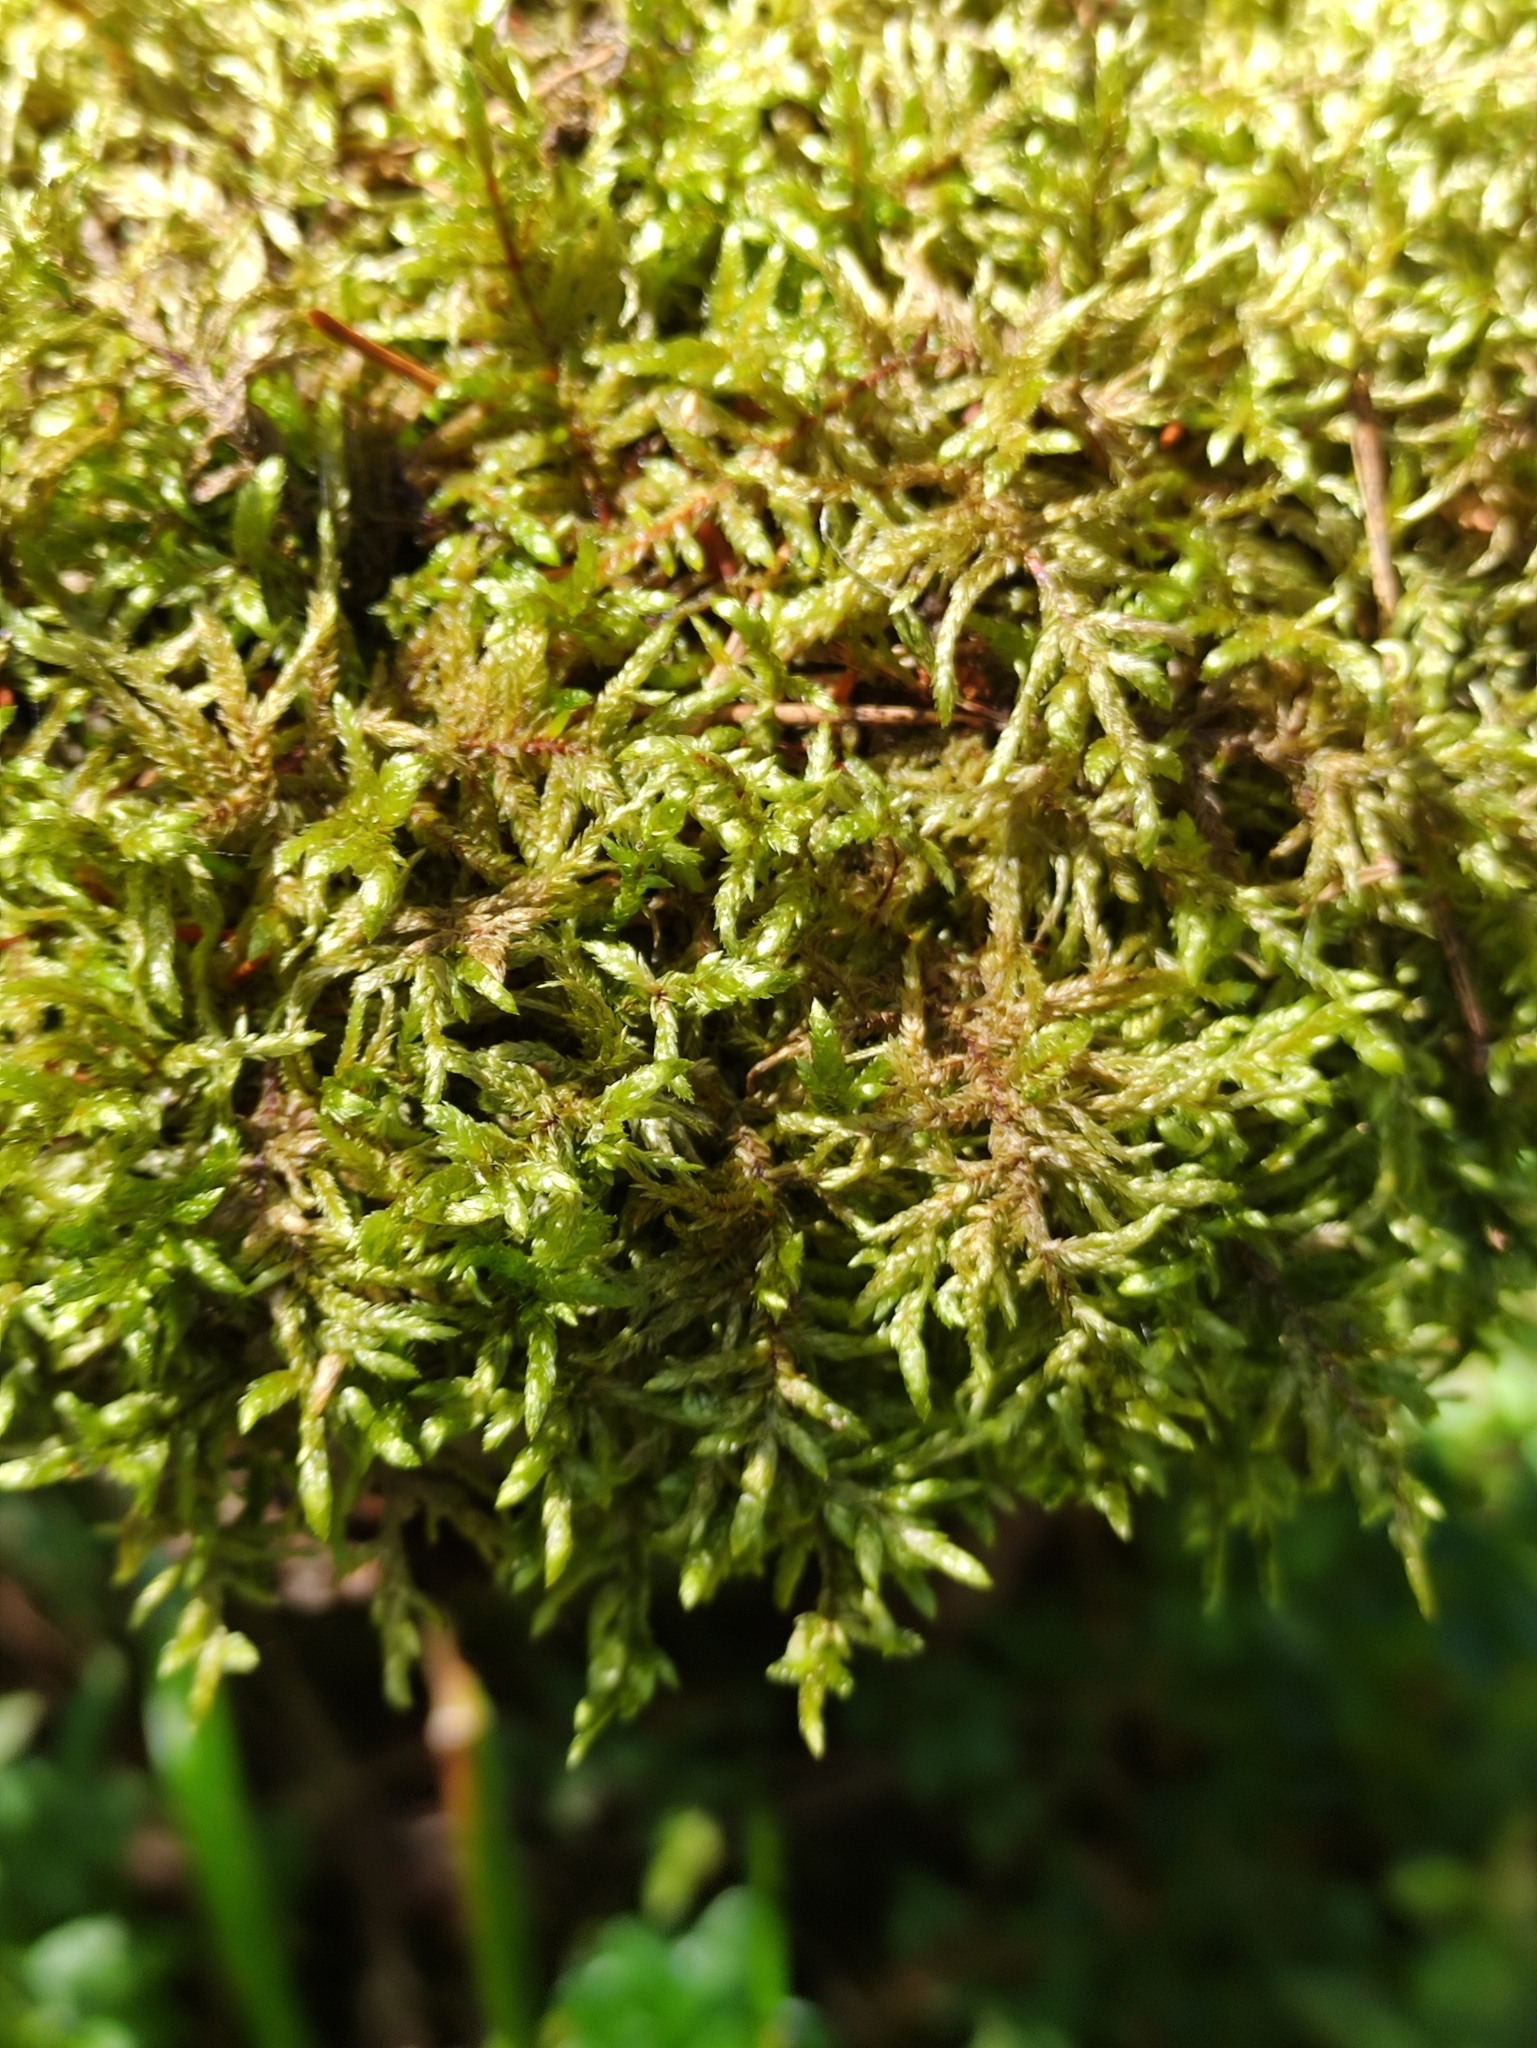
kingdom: Plantae
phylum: Bryophyta
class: Bryopsida
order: Hypnales
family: Hylocomiaceae
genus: Pleurozium
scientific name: Pleurozium schreberi
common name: Red-stemmed feather moss
